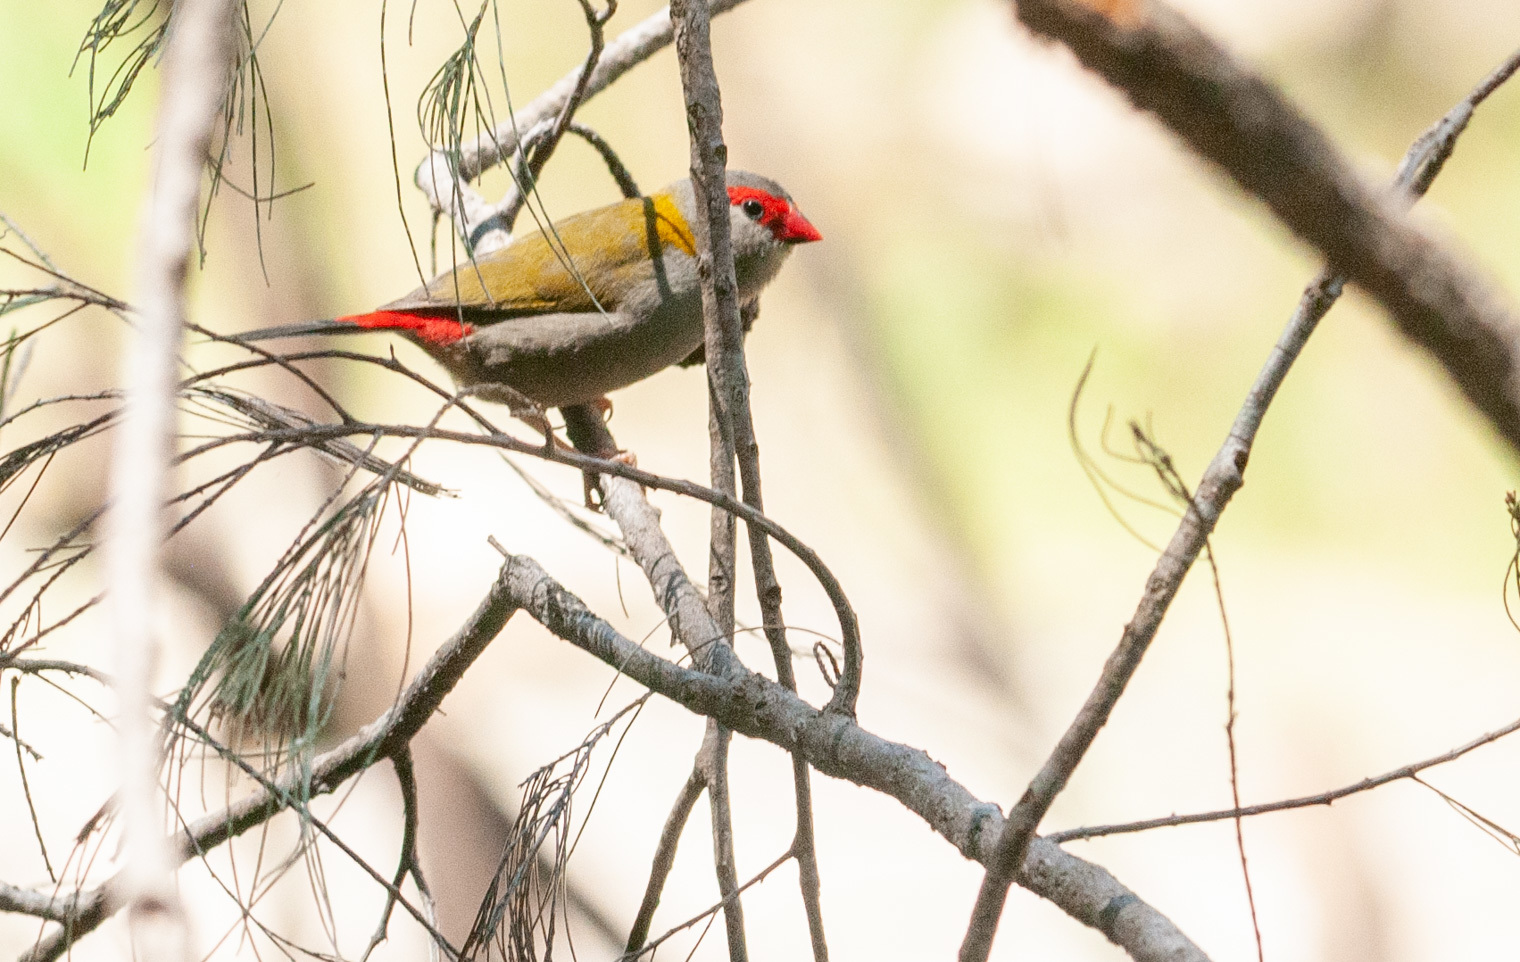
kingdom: Animalia
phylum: Chordata
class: Aves
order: Passeriformes
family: Estrildidae
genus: Neochmia
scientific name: Neochmia temporalis
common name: Red-browed finch
